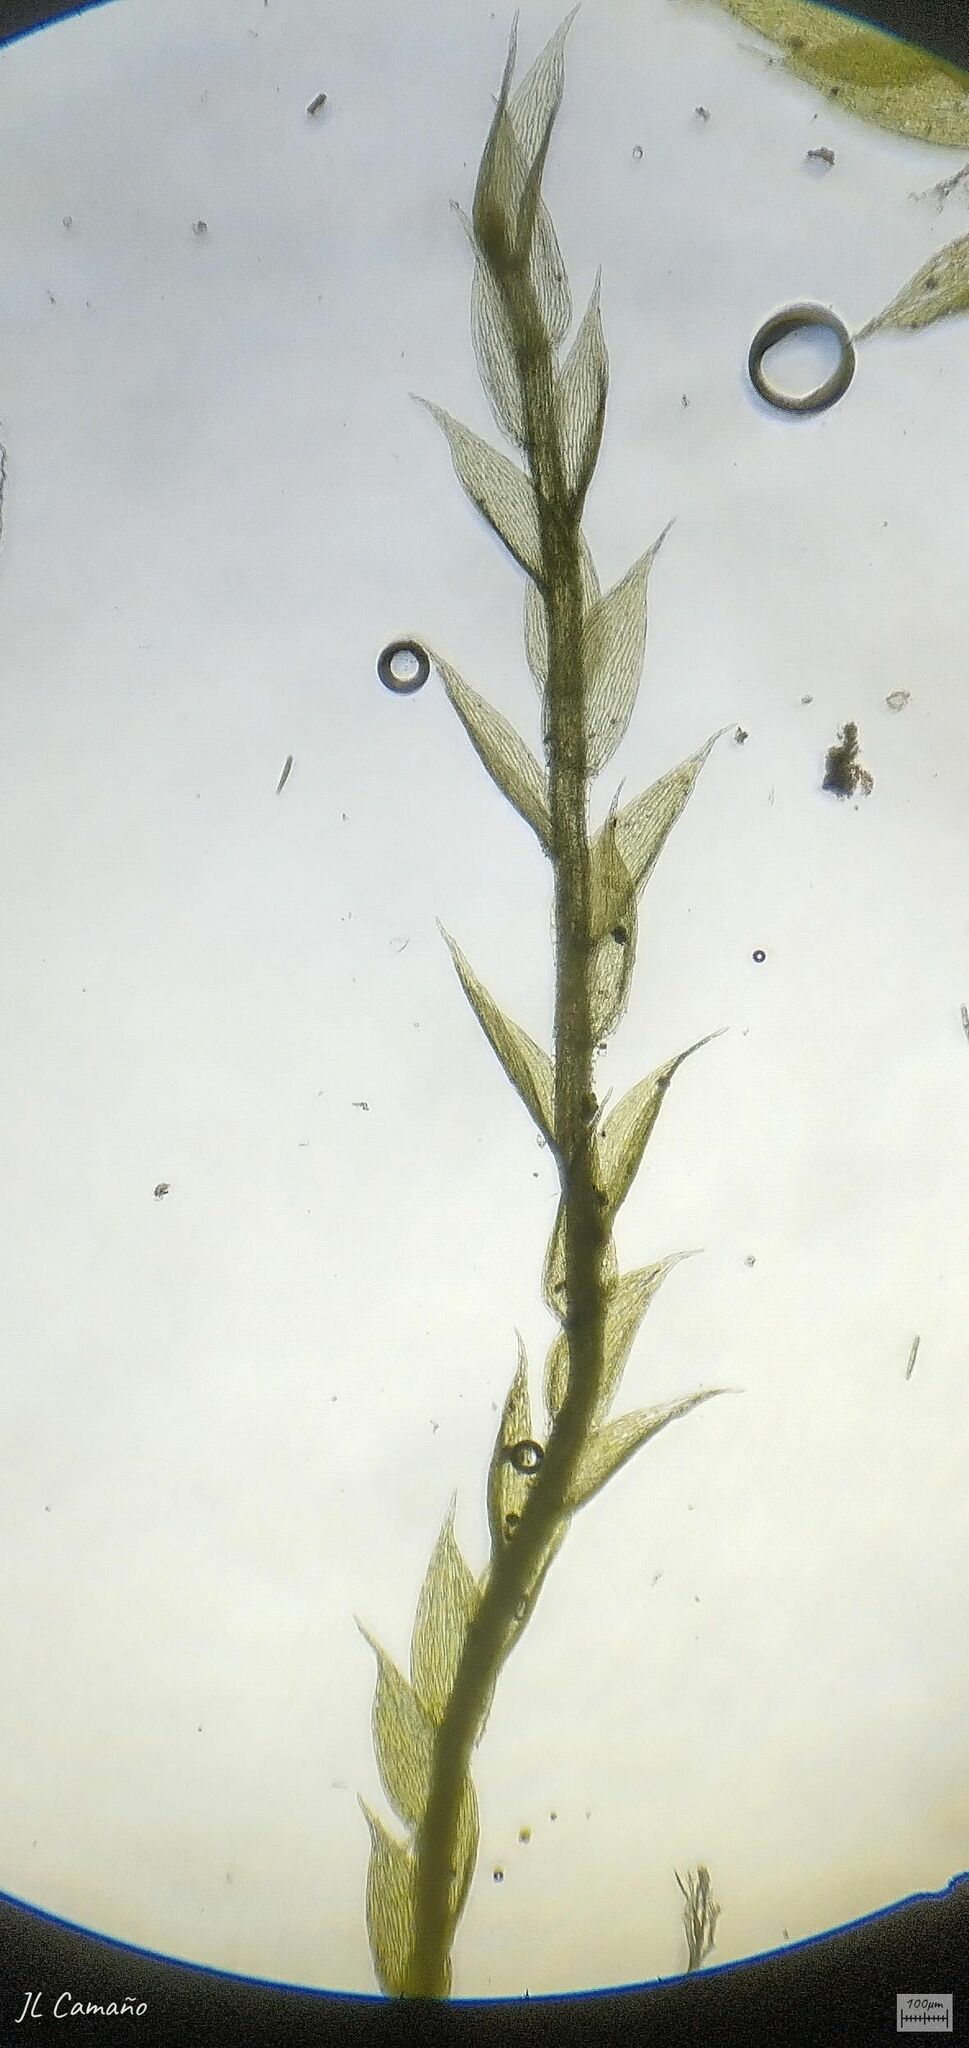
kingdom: Plantae
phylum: Bryophyta
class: Bryopsida
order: Hypnales
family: Plagiotheciaceae
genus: Plagiothecium
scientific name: Plagiothecium curvifolium
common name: Curved silk-moss
